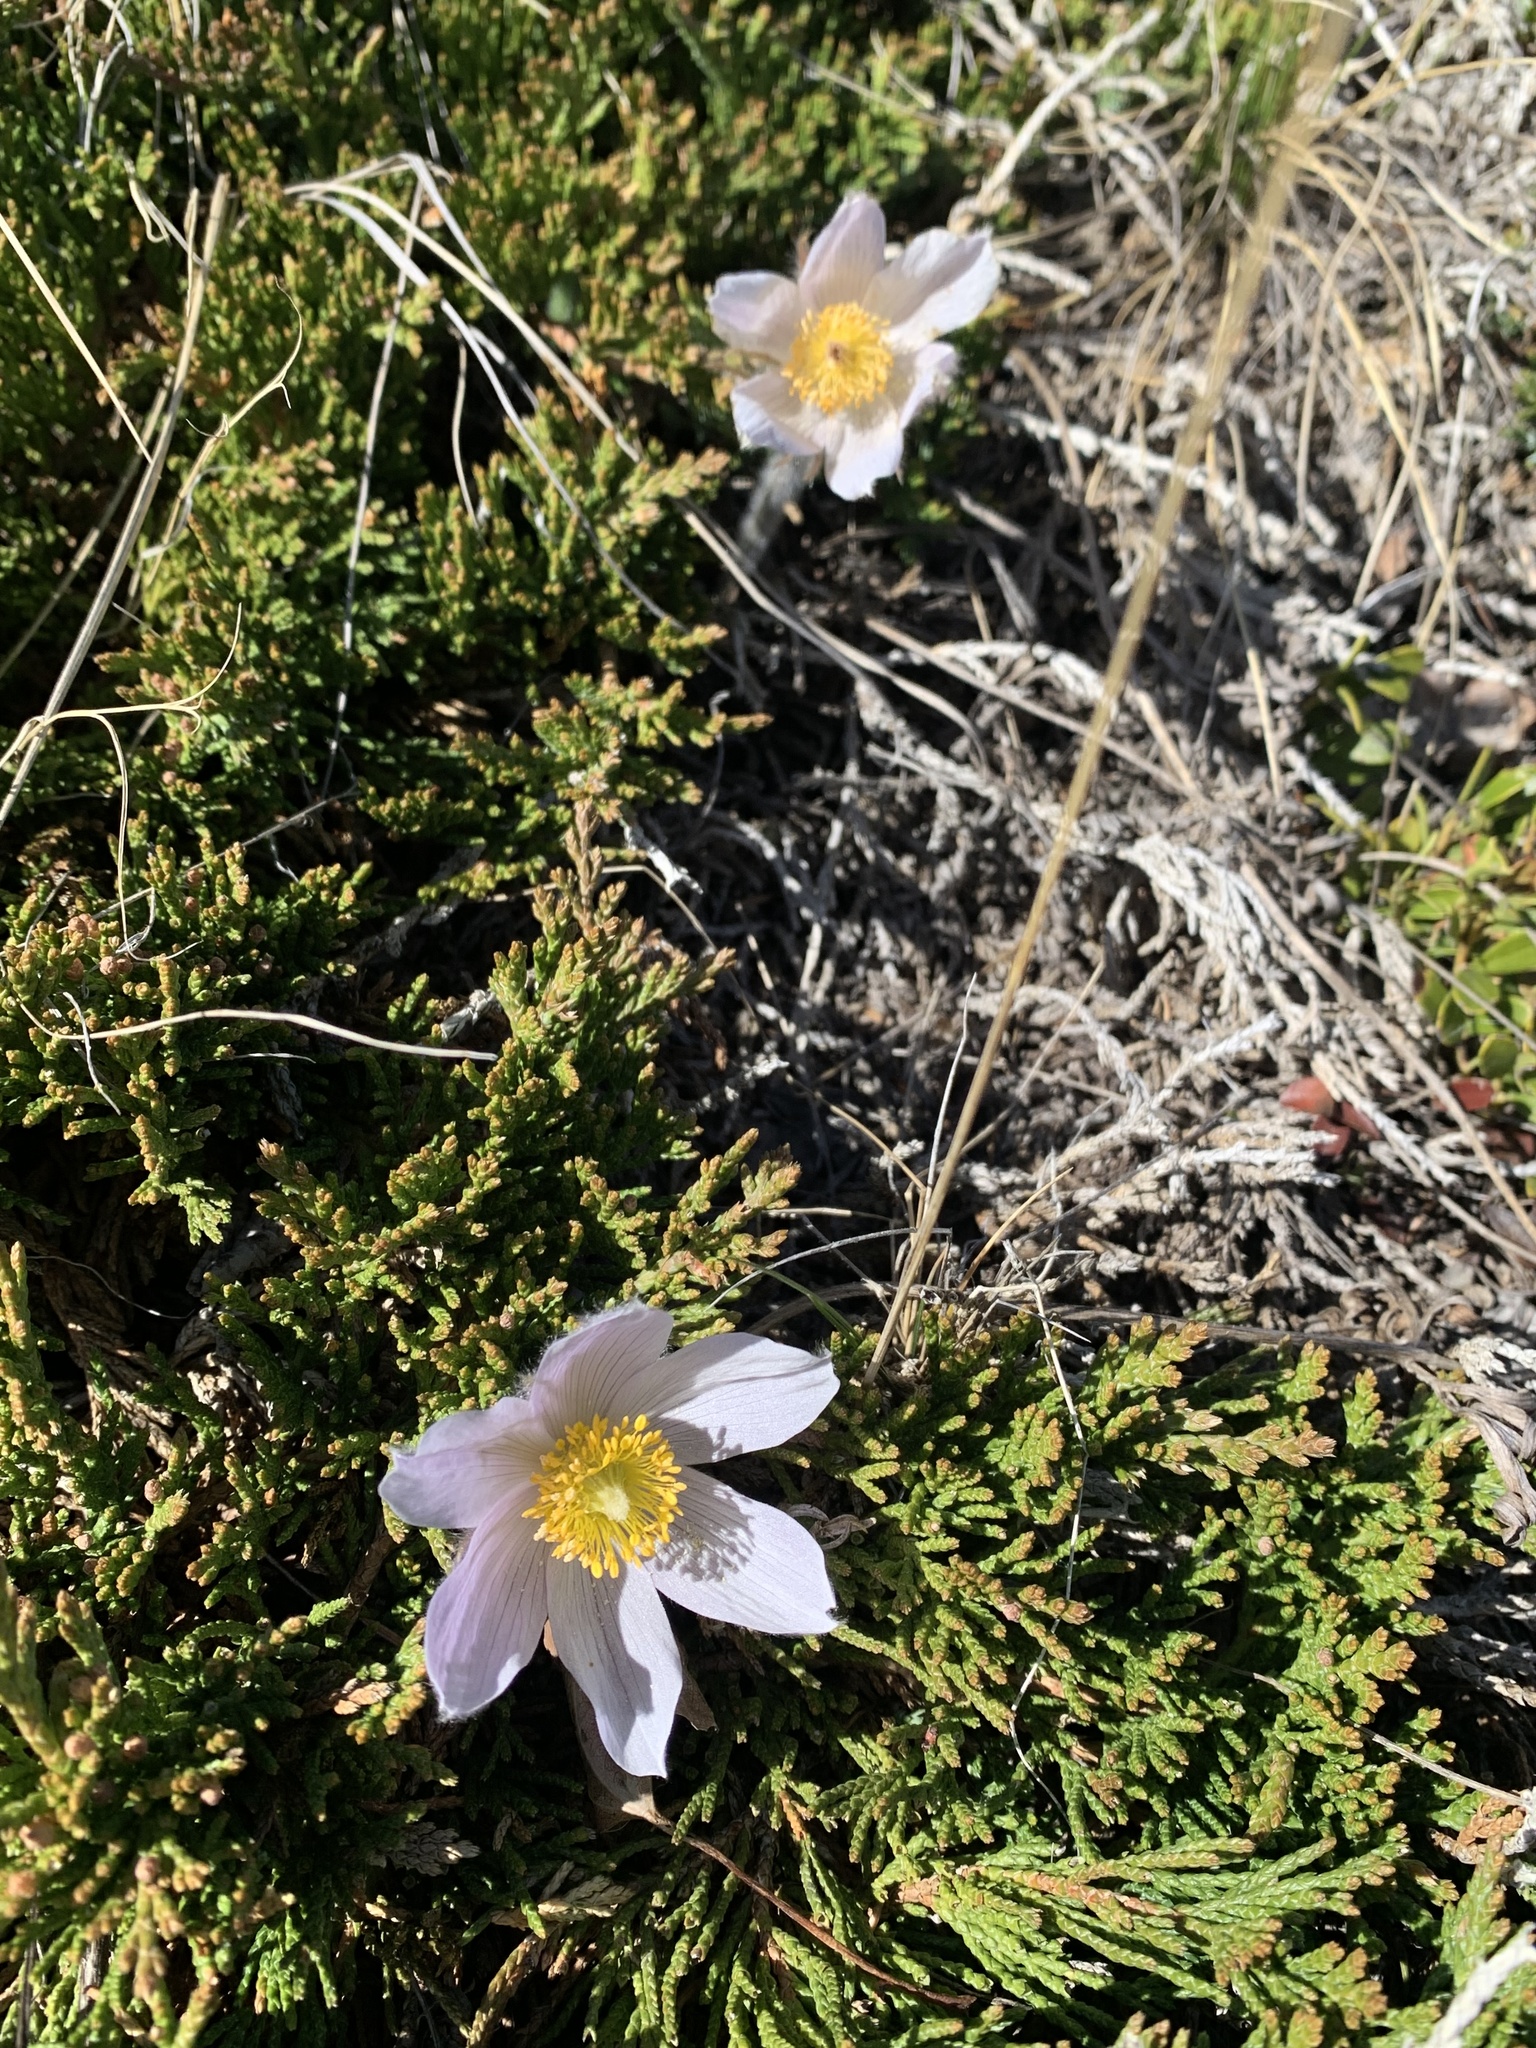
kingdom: Plantae
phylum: Tracheophyta
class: Magnoliopsida
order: Ranunculales
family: Ranunculaceae
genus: Pulsatilla
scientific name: Pulsatilla nuttalliana
